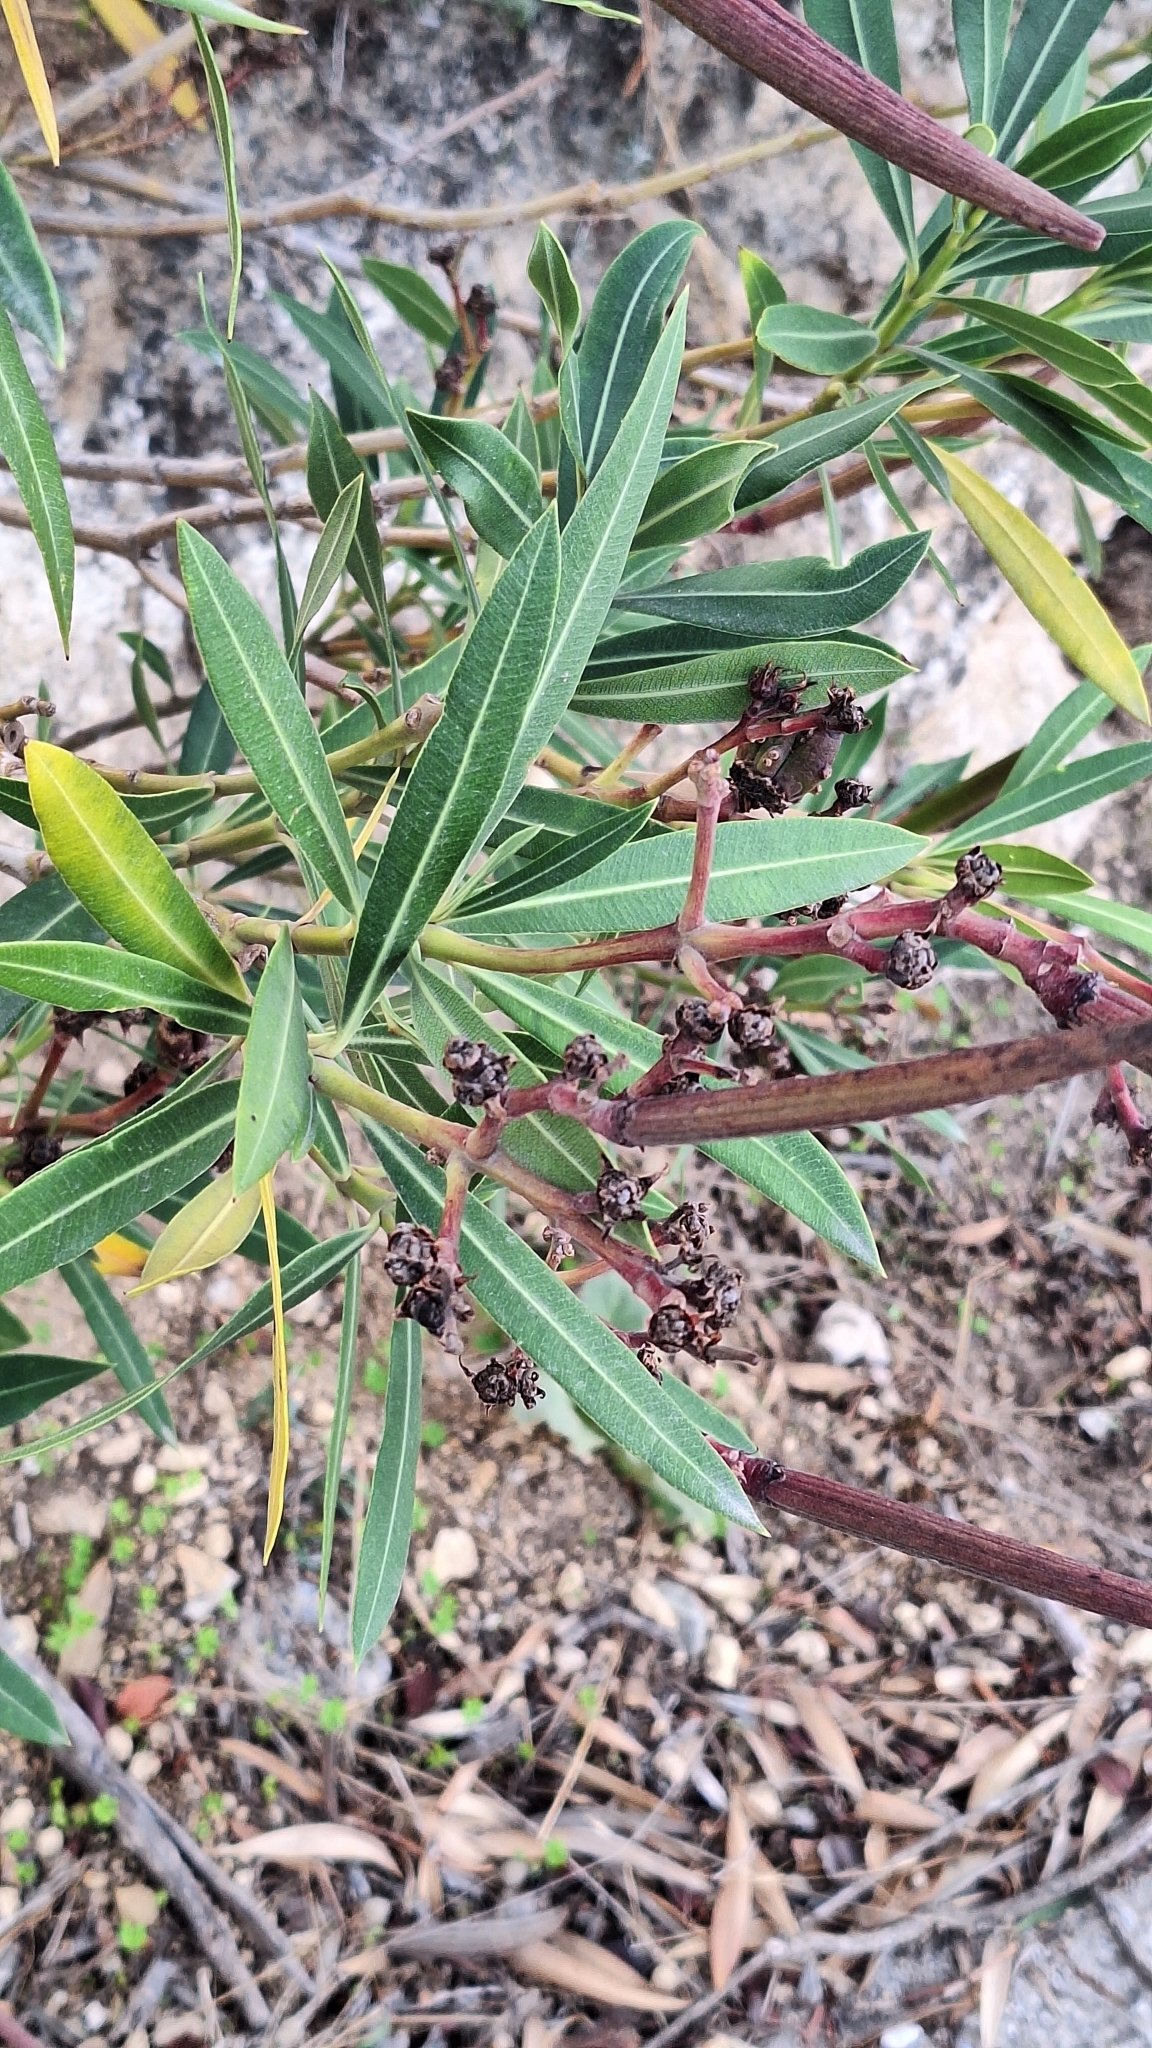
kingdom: Plantae
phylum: Tracheophyta
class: Magnoliopsida
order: Gentianales
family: Apocynaceae
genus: Nerium
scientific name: Nerium oleander
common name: Oleander
